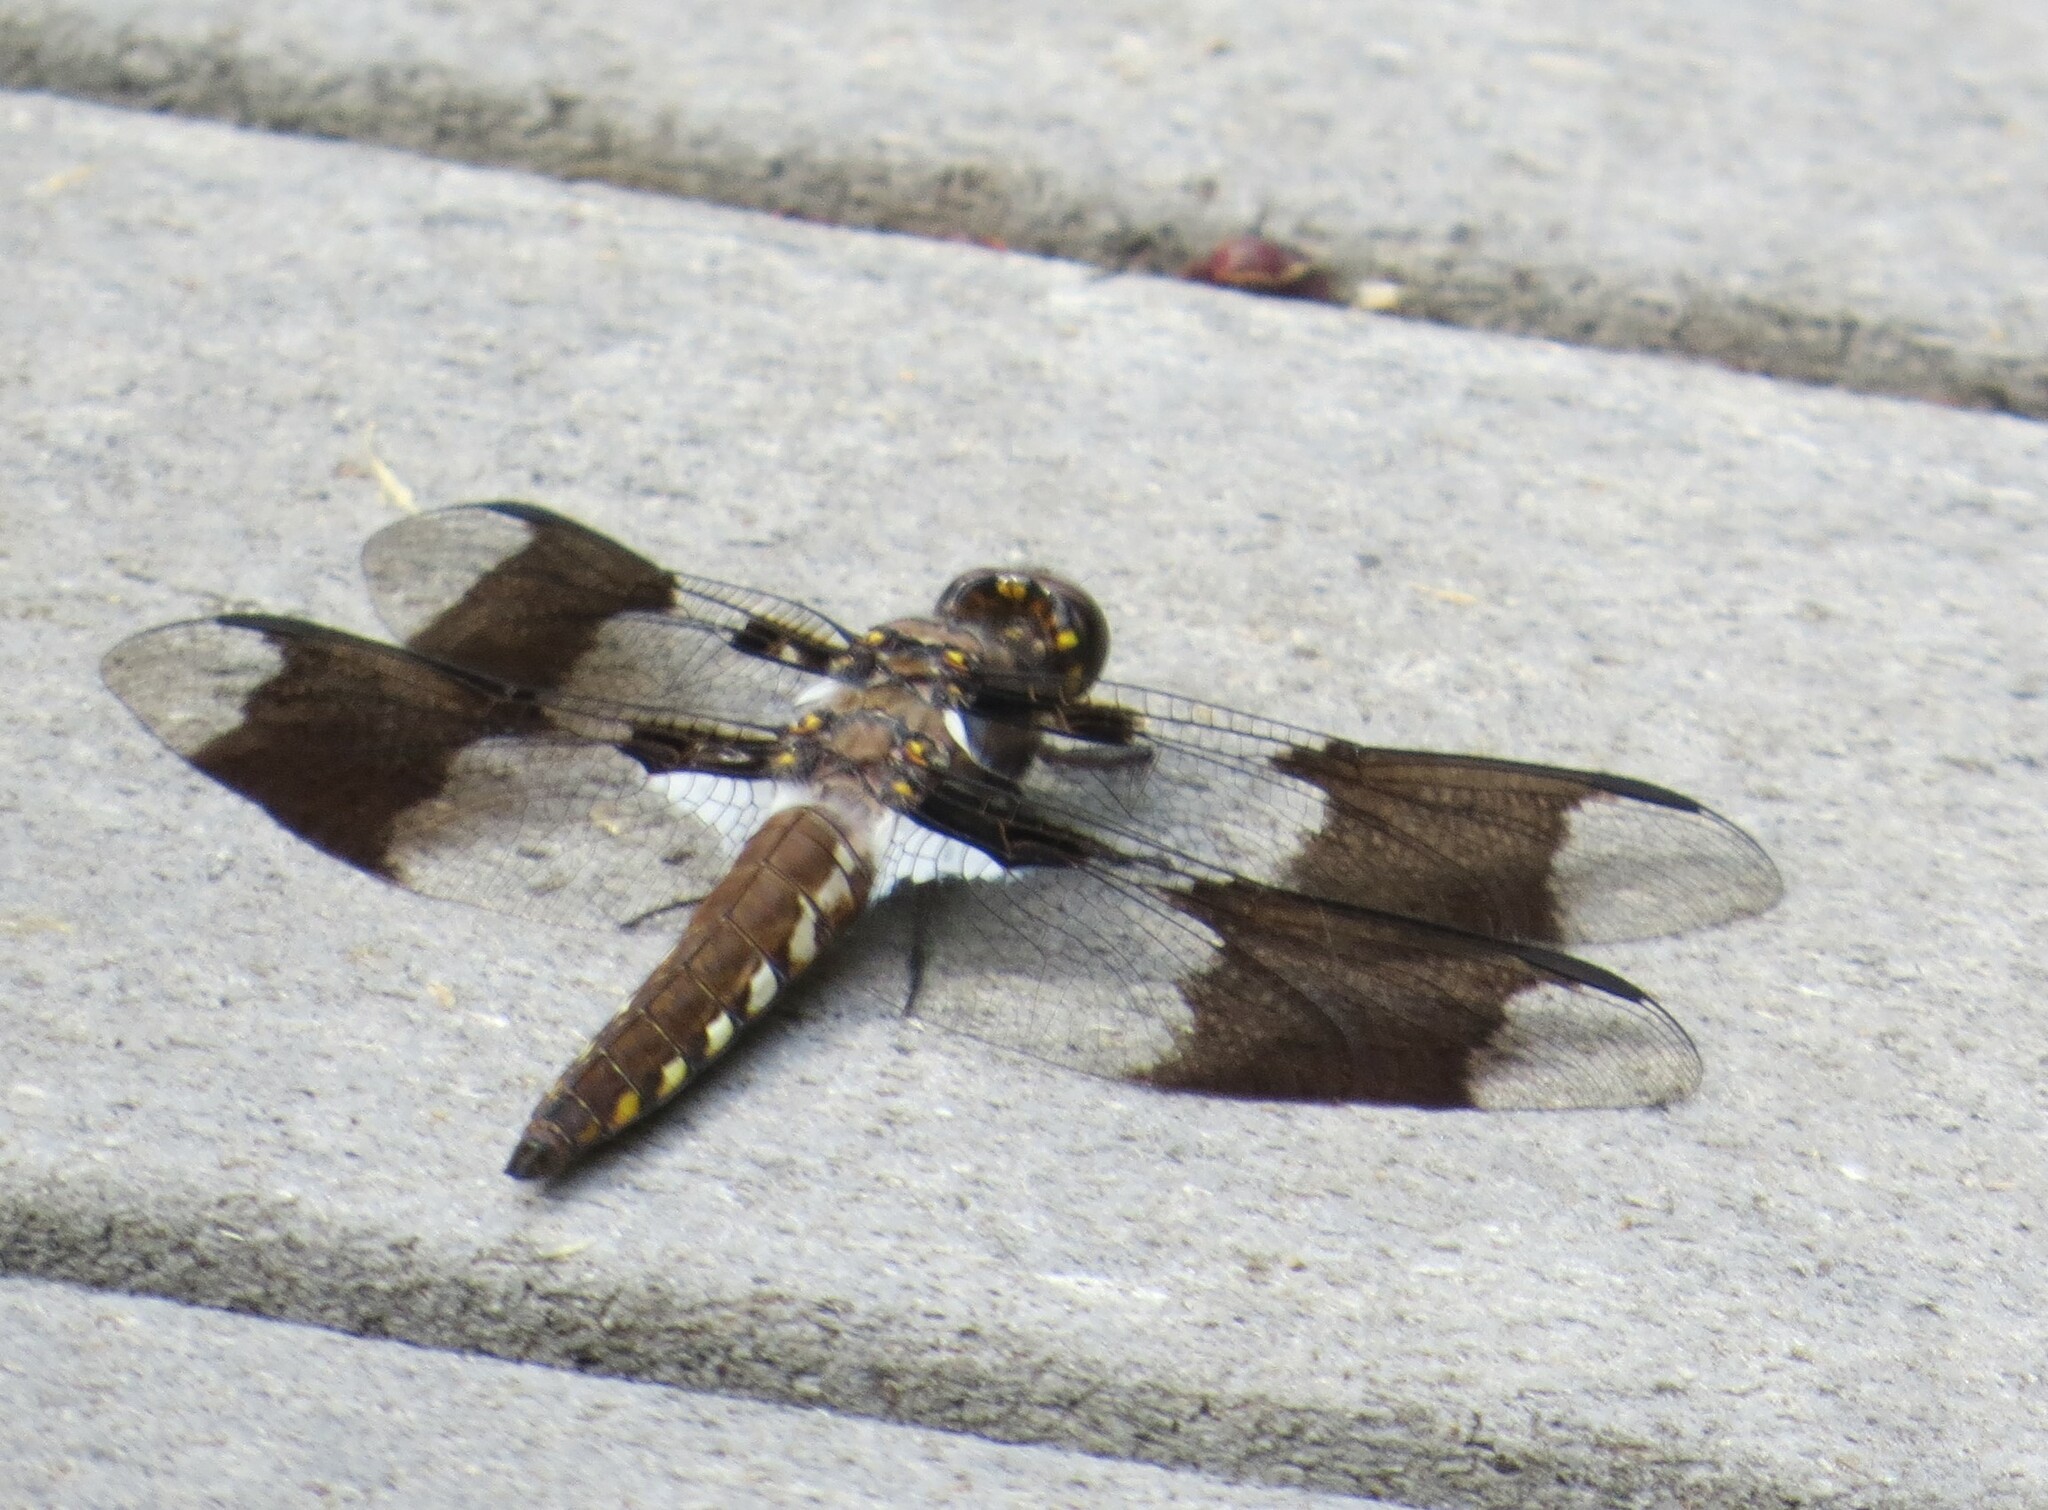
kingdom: Animalia
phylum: Arthropoda
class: Insecta
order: Odonata
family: Libellulidae
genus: Plathemis
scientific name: Plathemis lydia
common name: Common whitetail
